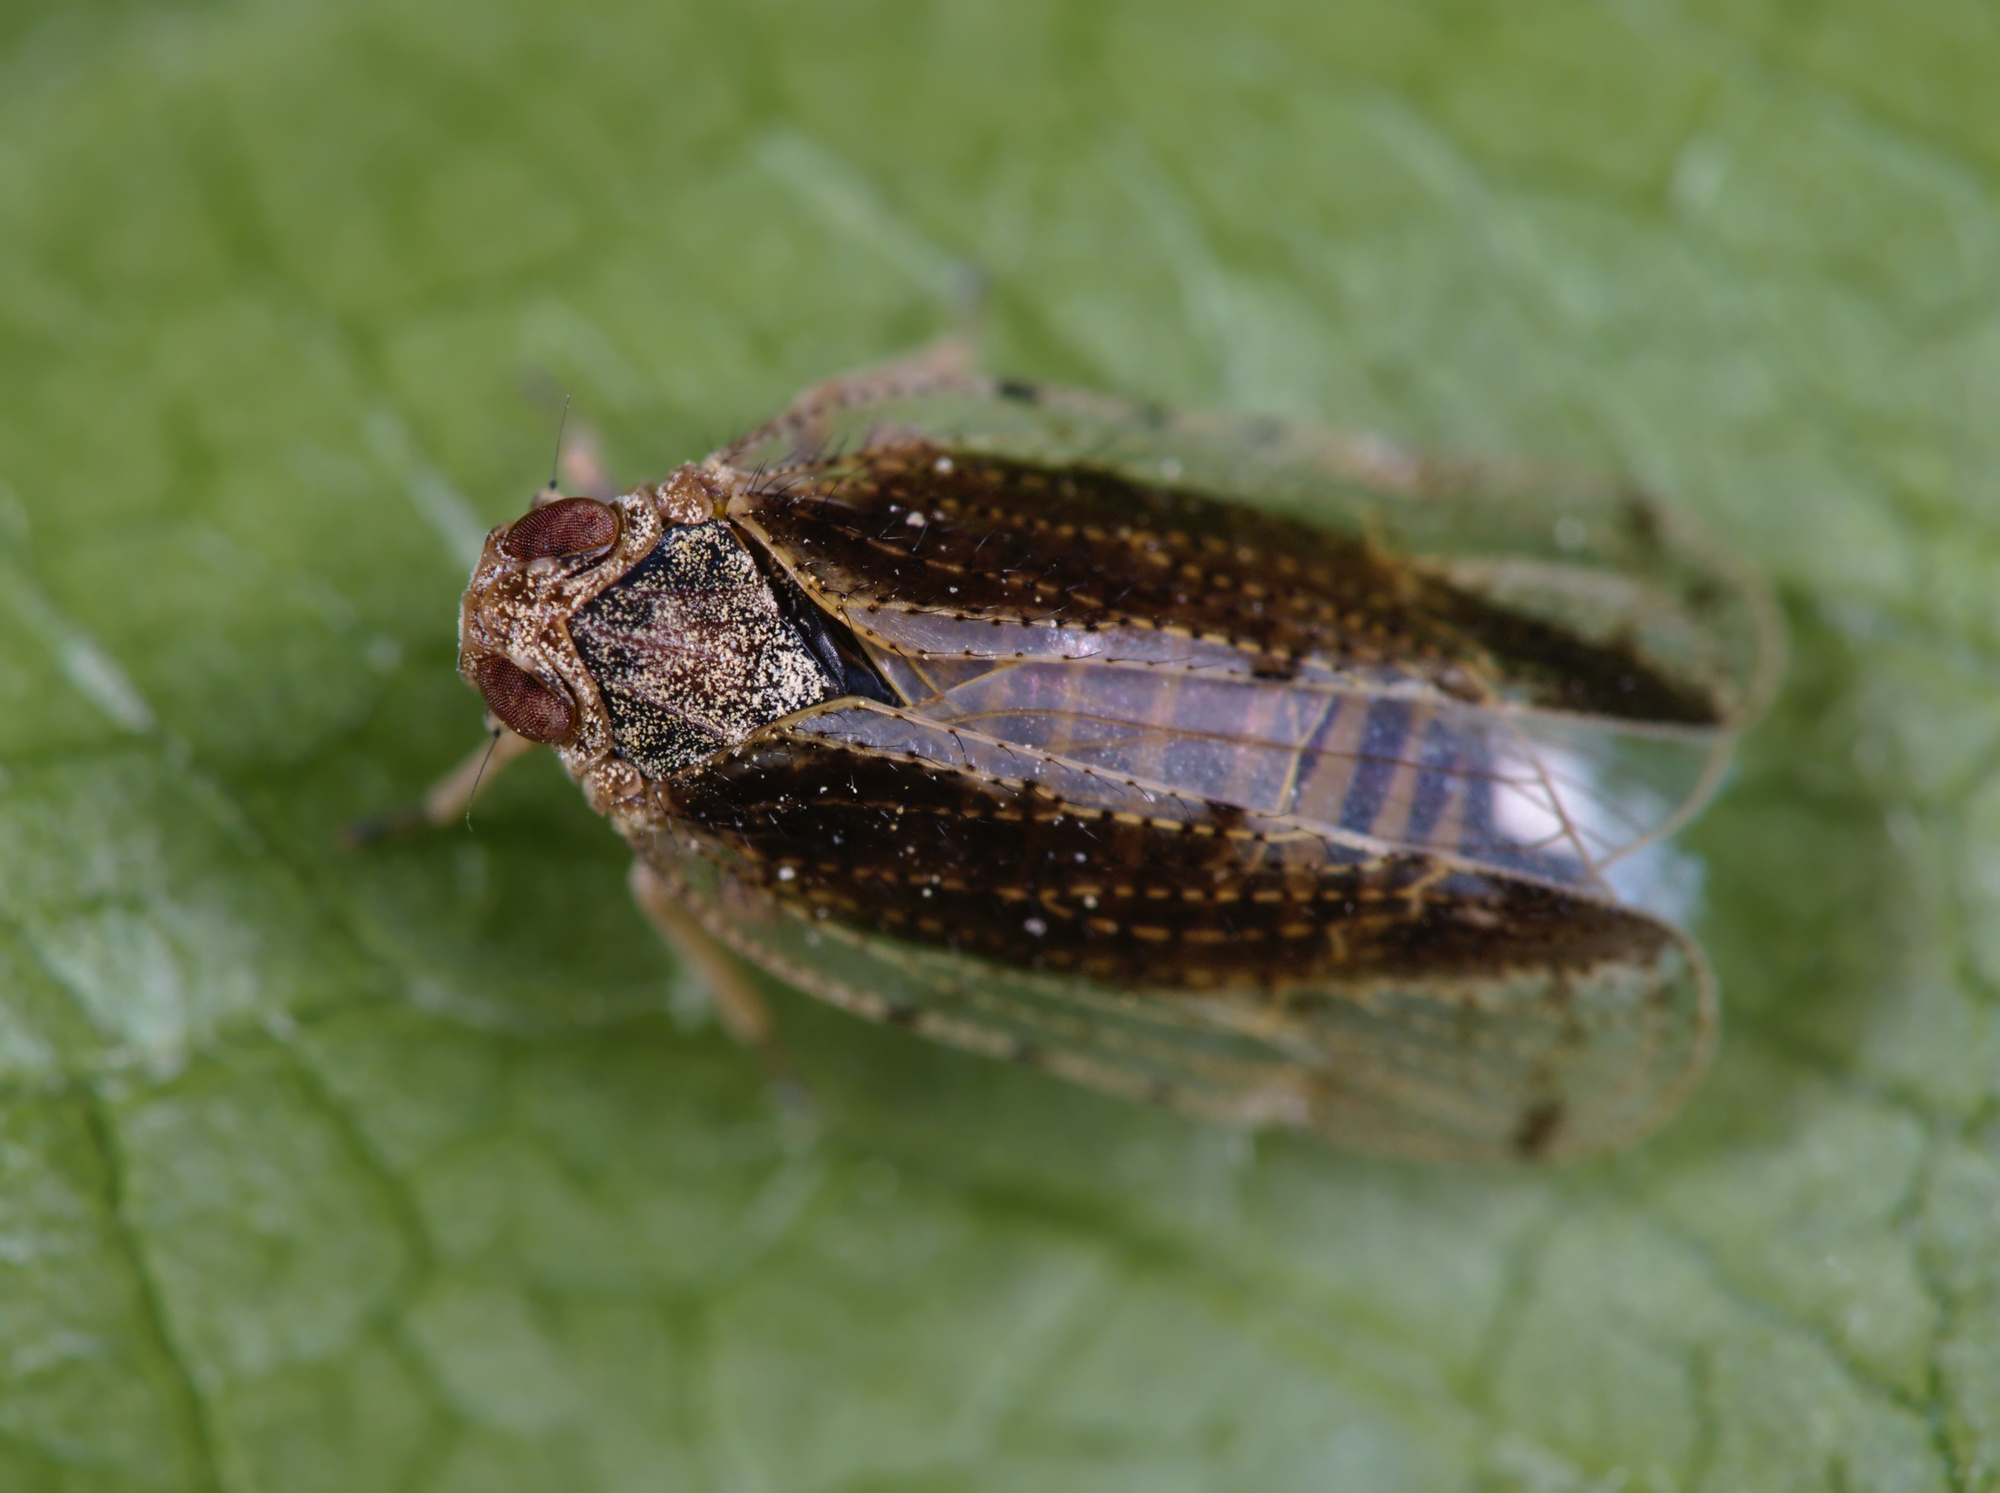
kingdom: Animalia
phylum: Arthropoda
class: Insecta
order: Hemiptera
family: Cixiidae
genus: Tachycixius
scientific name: Tachycixius pilosus
